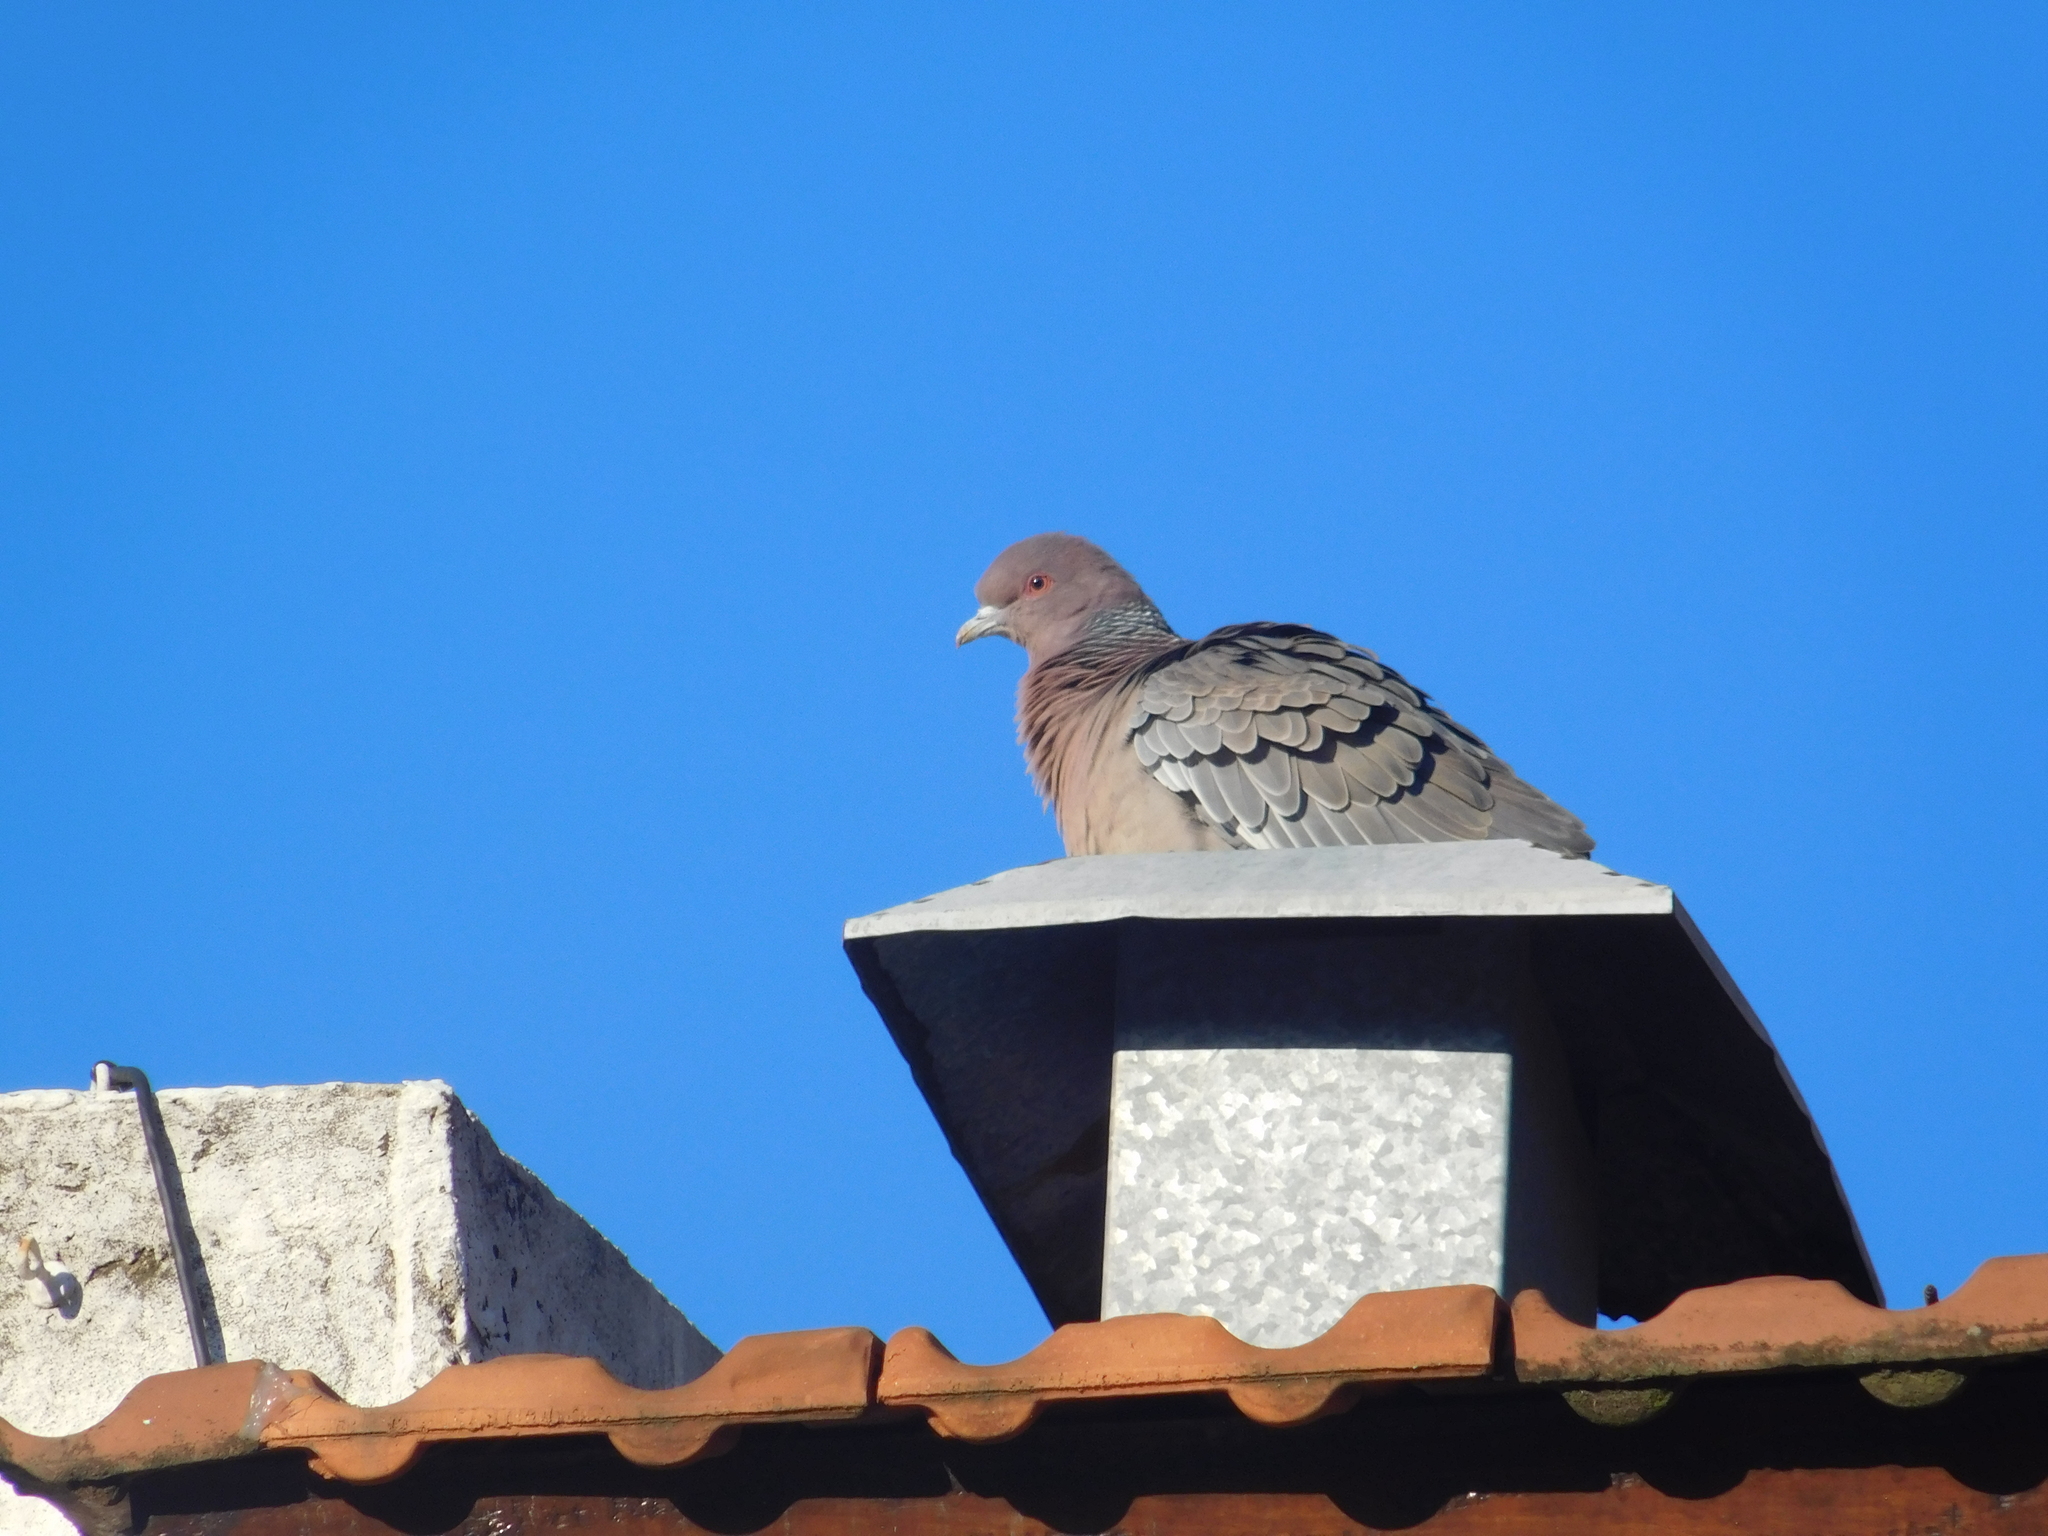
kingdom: Animalia
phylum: Chordata
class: Aves
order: Columbiformes
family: Columbidae
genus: Patagioenas
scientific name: Patagioenas picazuro
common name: Picazuro pigeon
